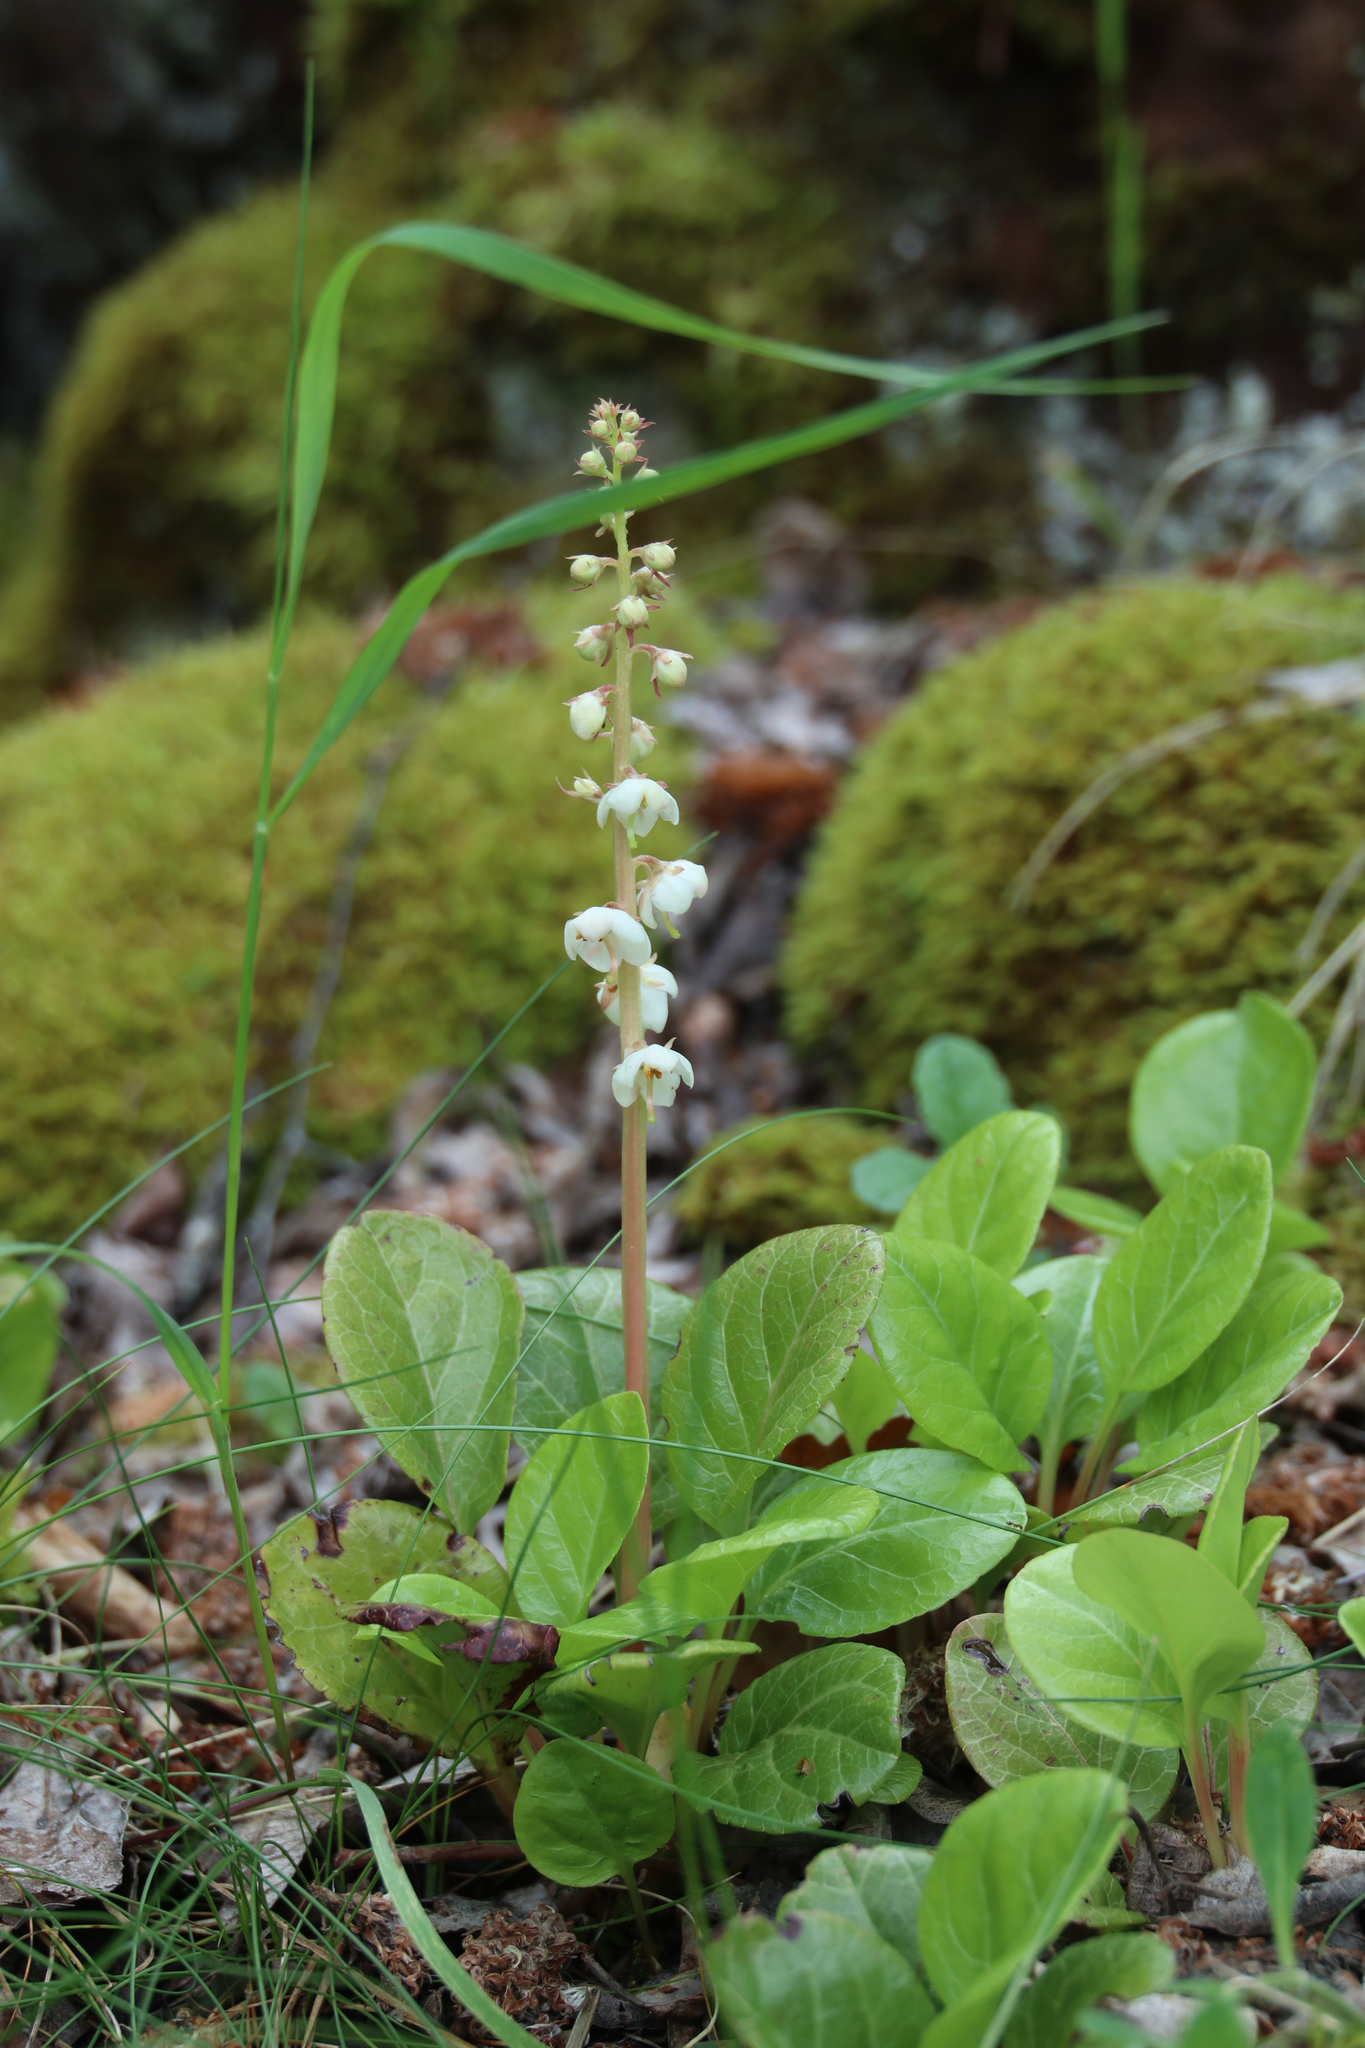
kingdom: Plantae
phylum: Tracheophyta
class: Magnoliopsida
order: Ericales
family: Ericaceae
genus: Pyrola
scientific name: Pyrola rotundifolia
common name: Round-leaved wintergreen
